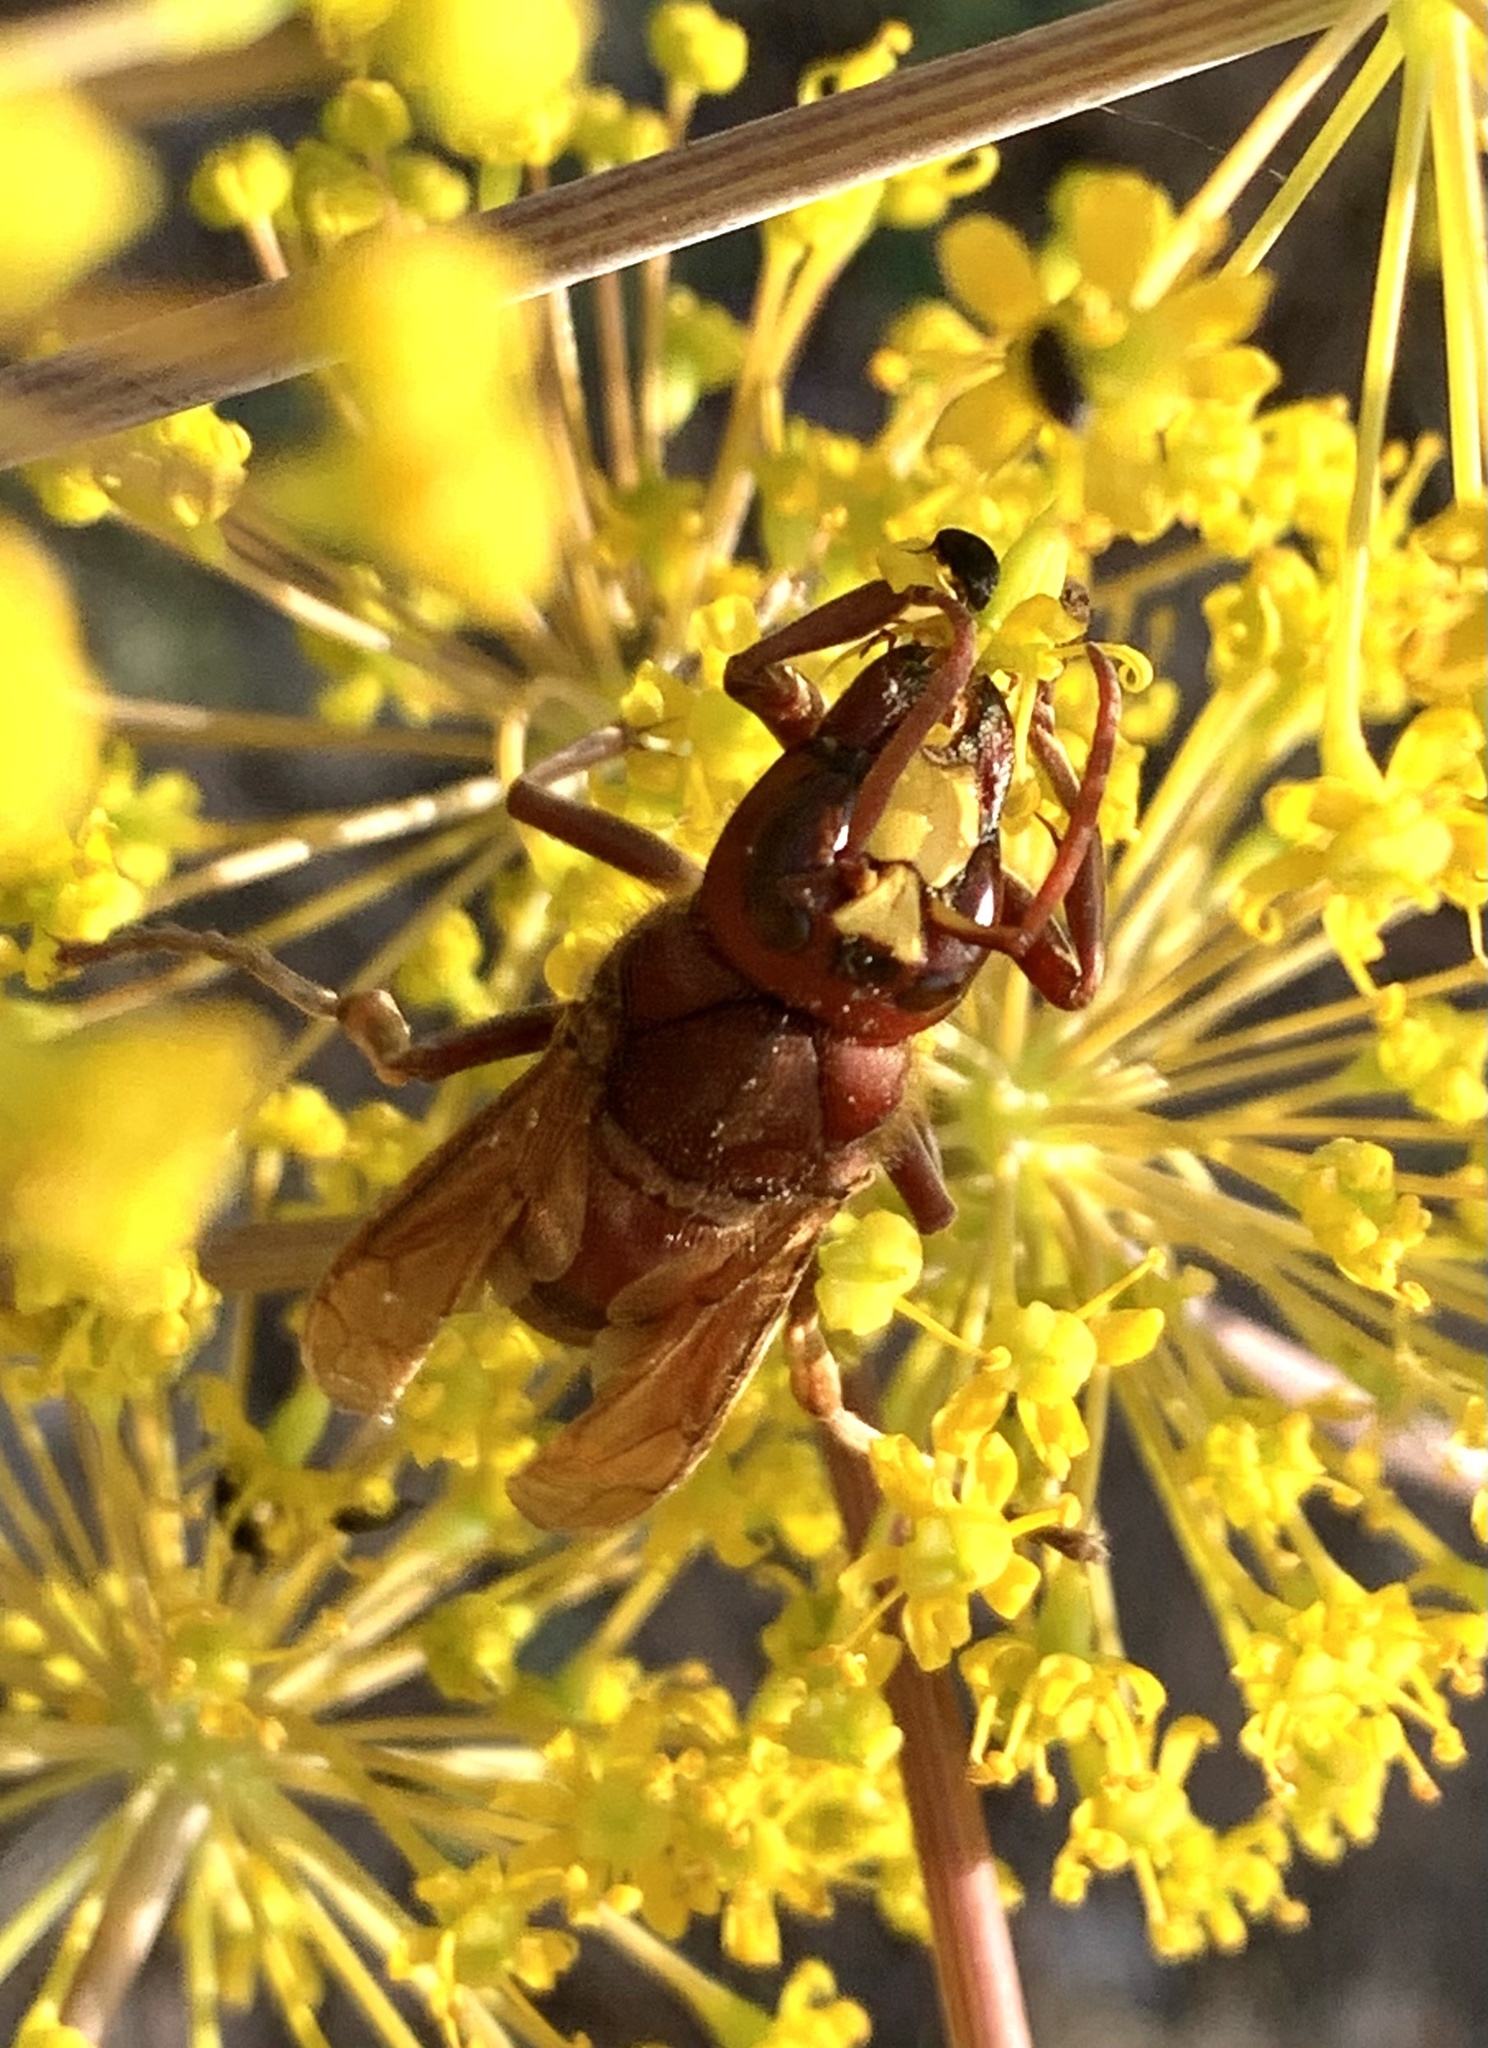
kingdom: Animalia
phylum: Arthropoda
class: Insecta
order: Hymenoptera
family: Vespidae
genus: Vespa
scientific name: Vespa orientalis
